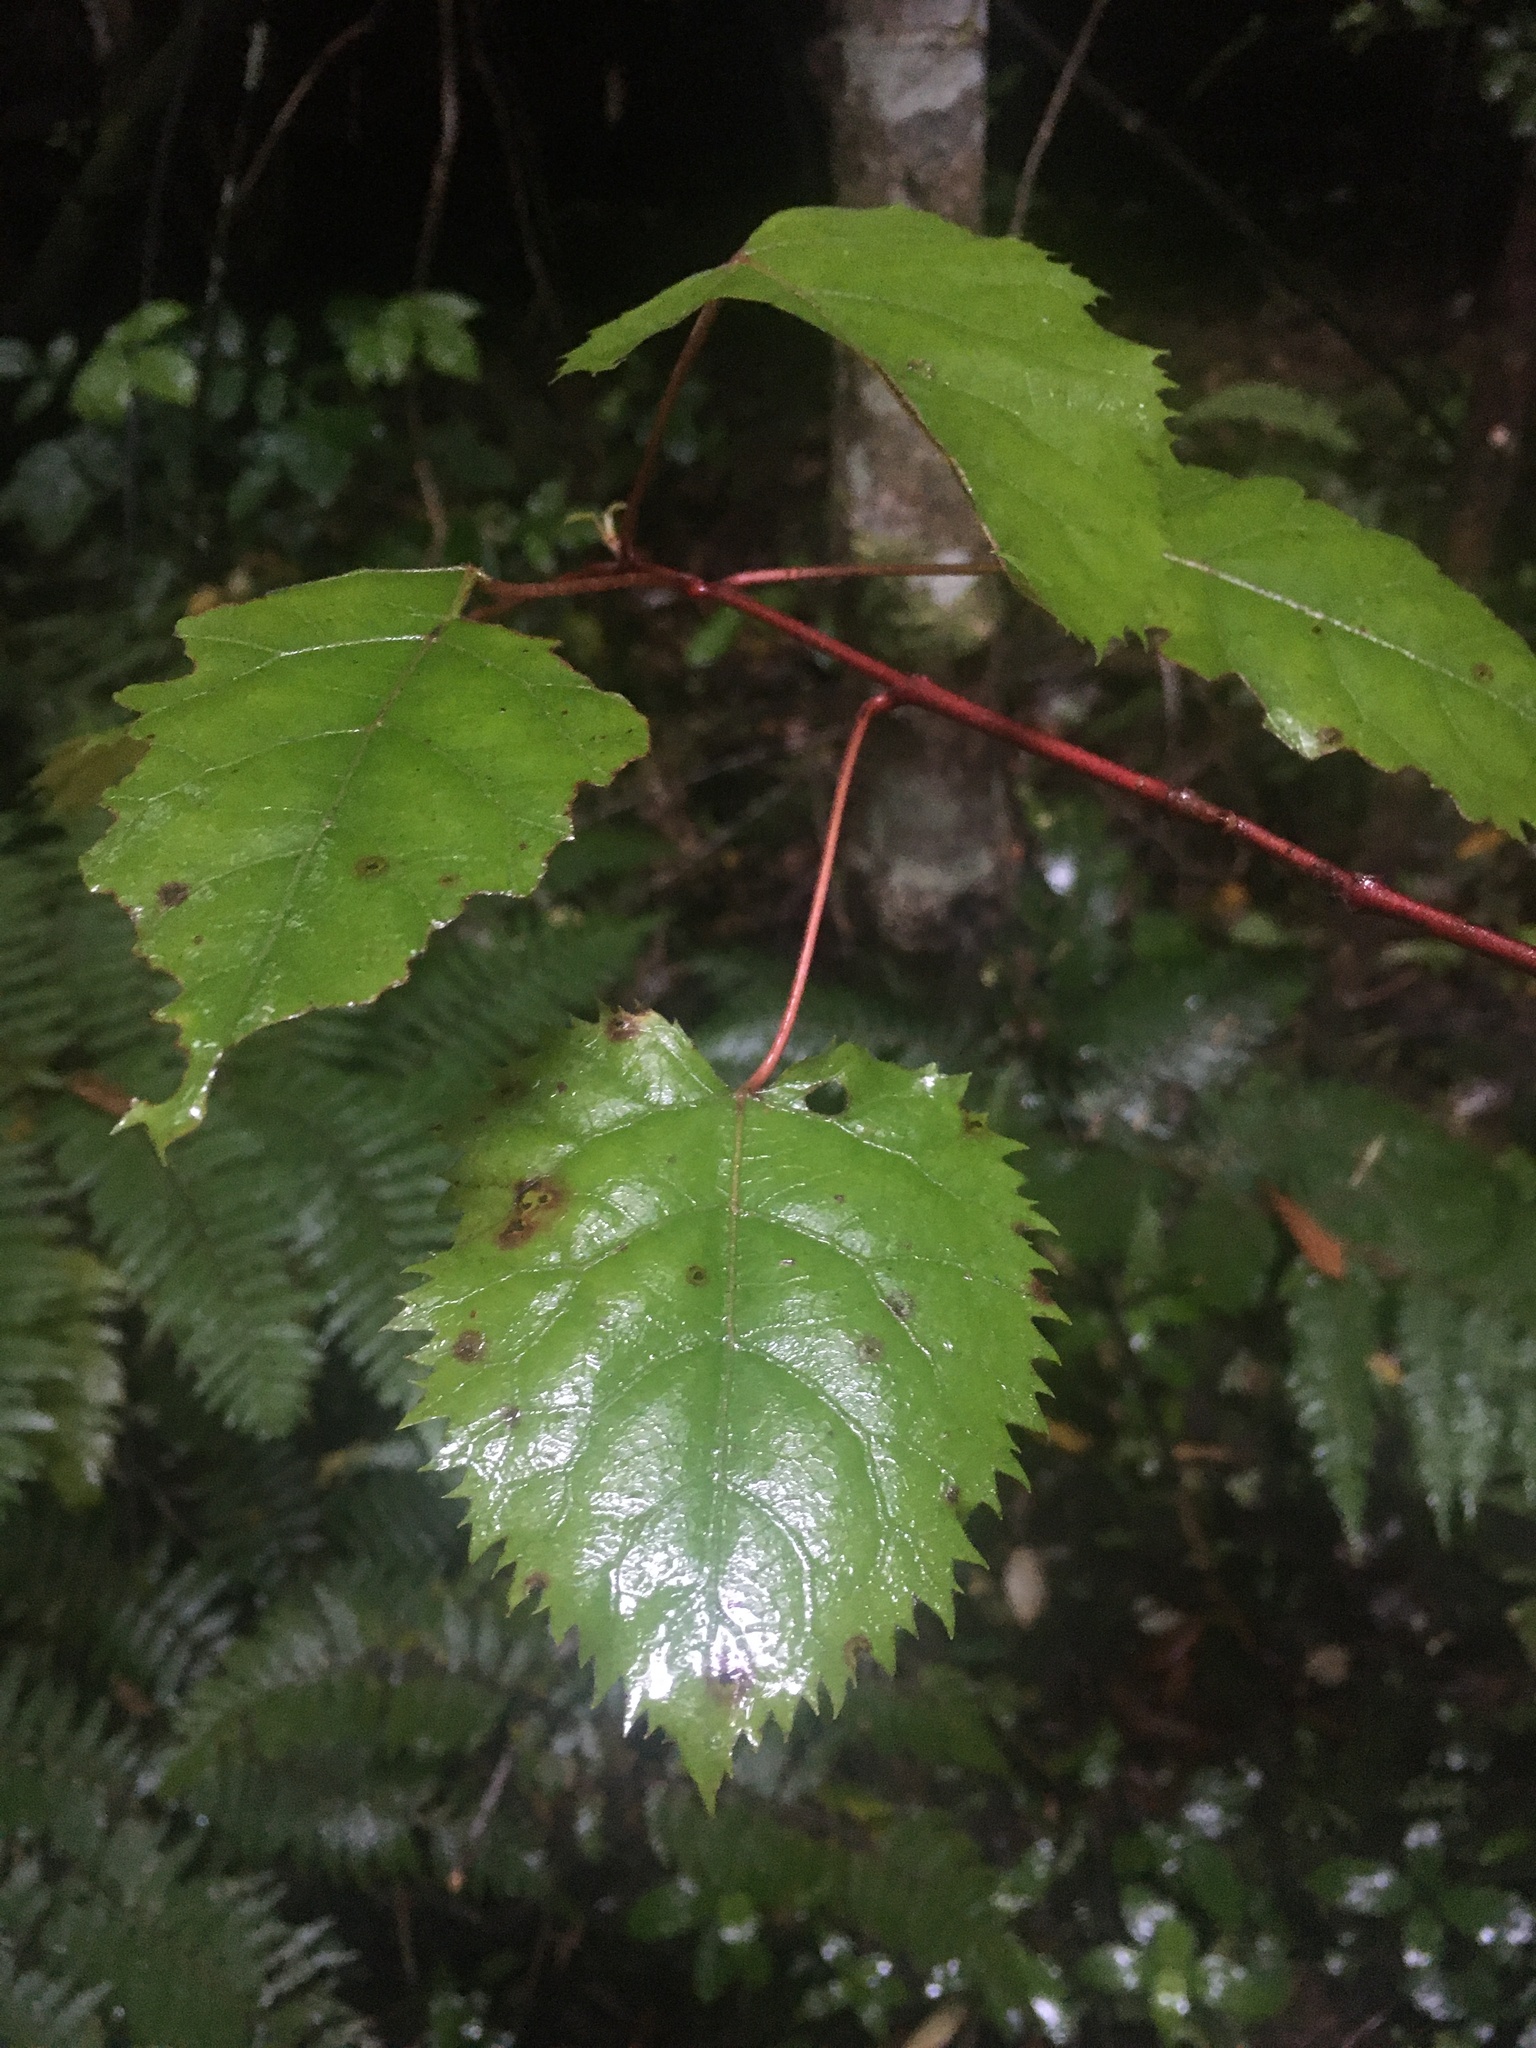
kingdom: Plantae
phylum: Tracheophyta
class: Magnoliopsida
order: Oxalidales
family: Elaeocarpaceae
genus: Aristotelia
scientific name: Aristotelia serrata
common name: New zealand wineberry
